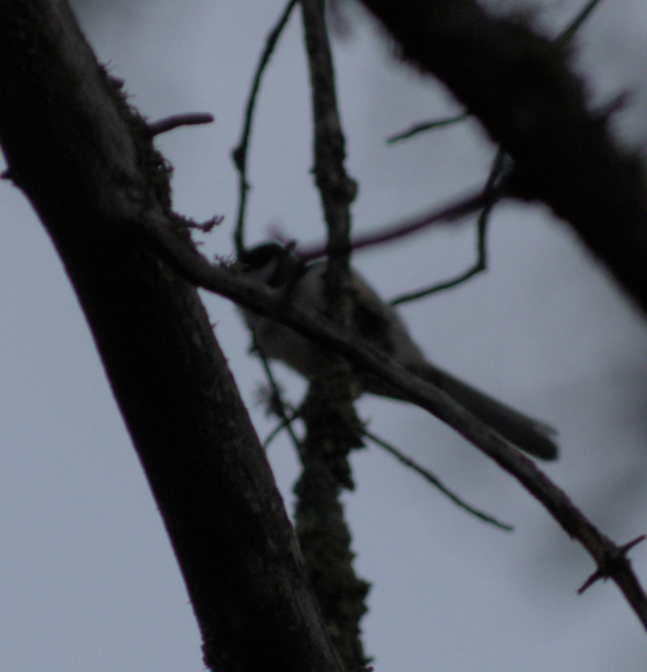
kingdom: Animalia
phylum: Chordata
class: Aves
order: Passeriformes
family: Paridae
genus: Poecile
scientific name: Poecile atricapillus
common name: Black-capped chickadee
